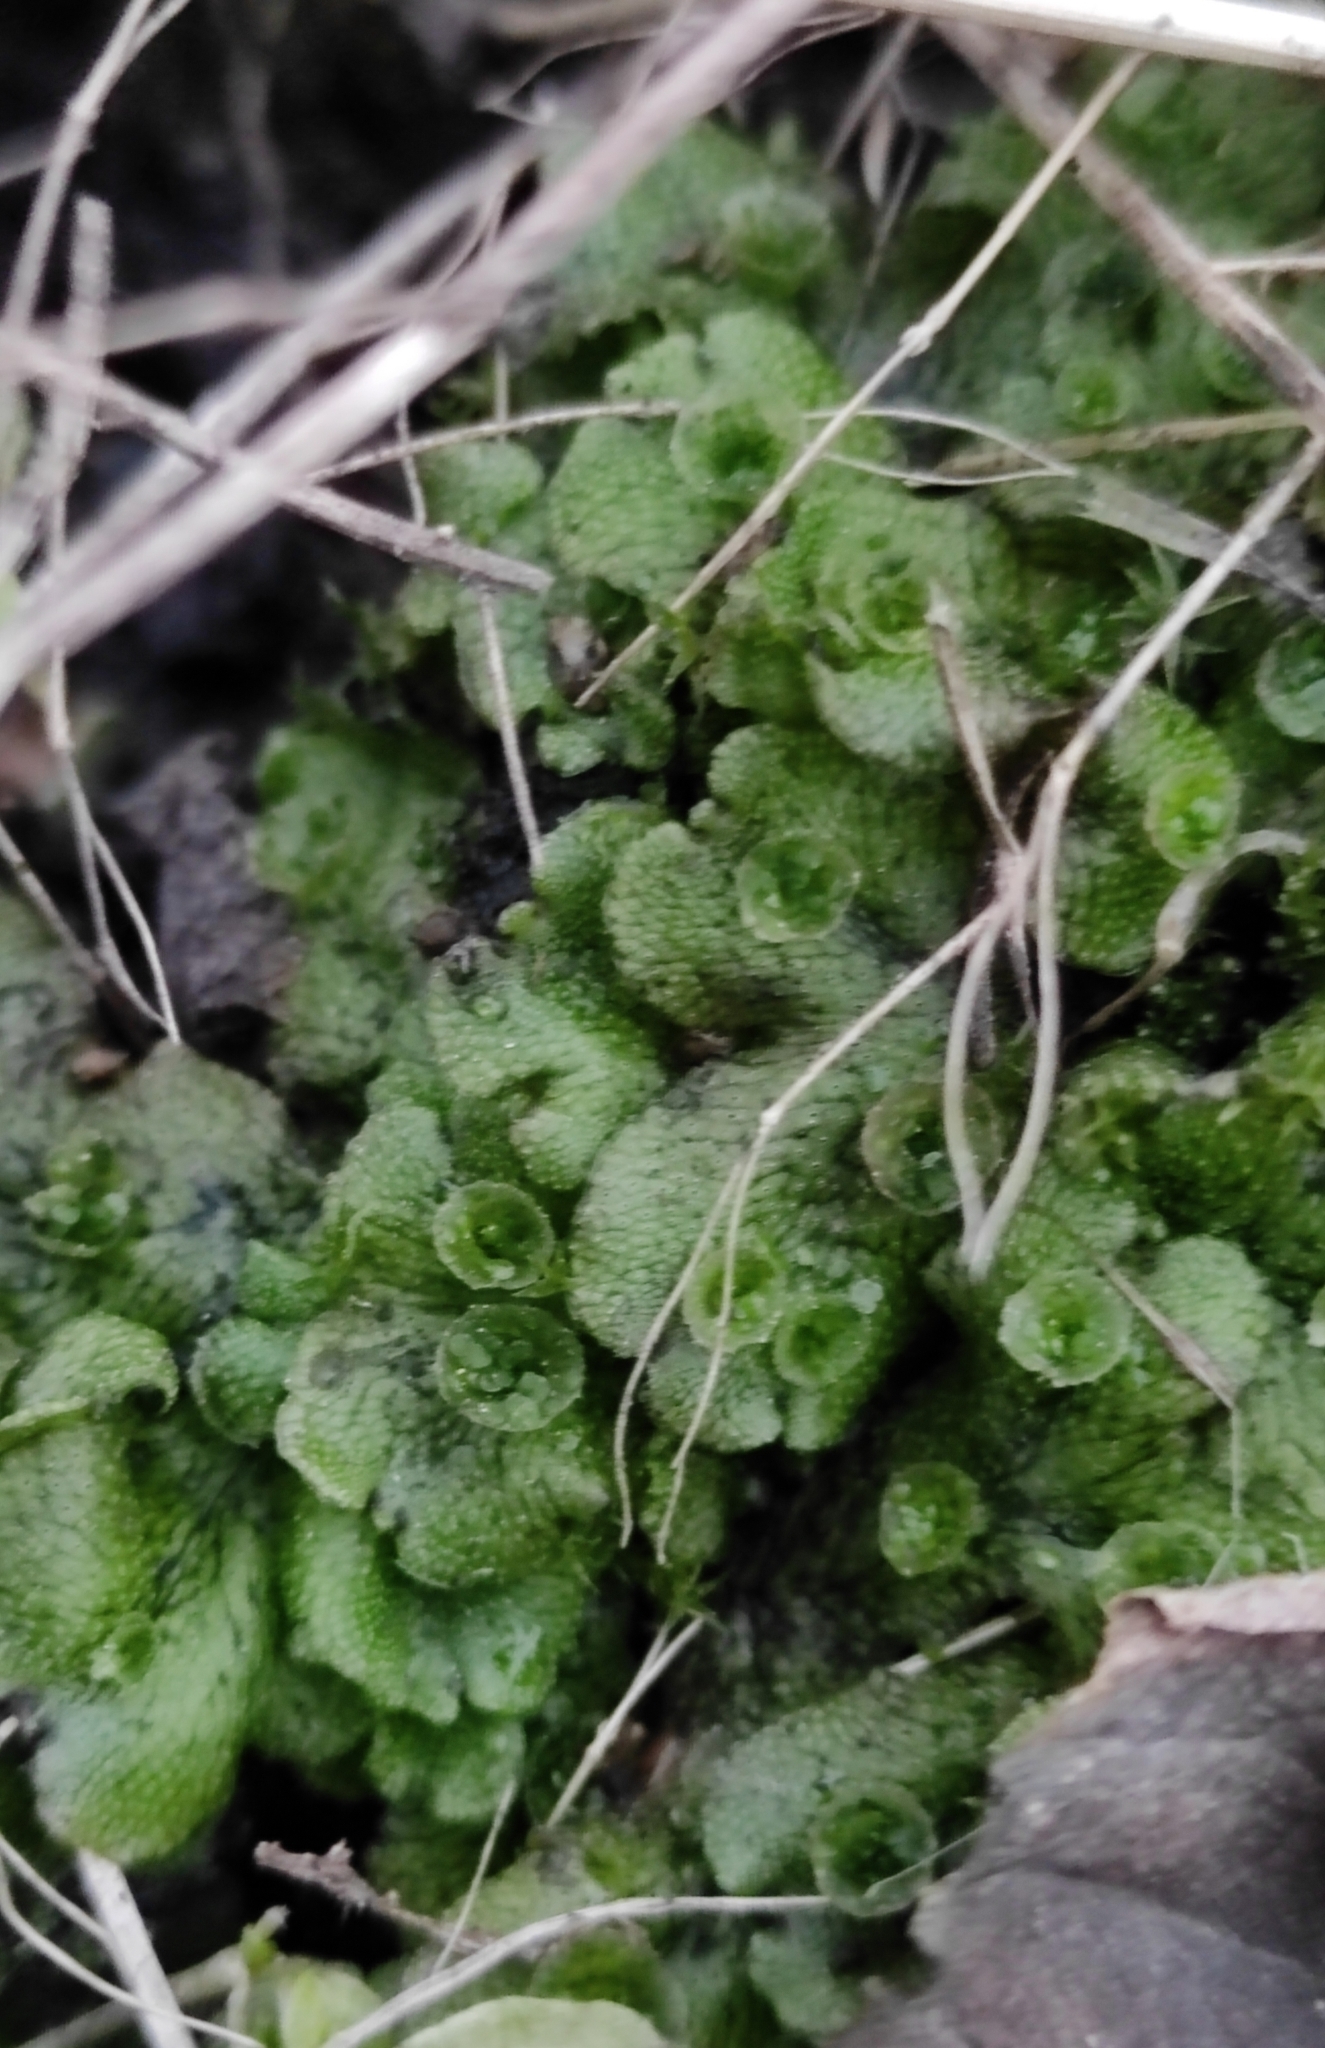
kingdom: Plantae
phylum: Marchantiophyta
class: Marchantiopsida
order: Marchantiales
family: Marchantiaceae
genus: Marchantia
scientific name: Marchantia polymorpha
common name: Common liverwort
